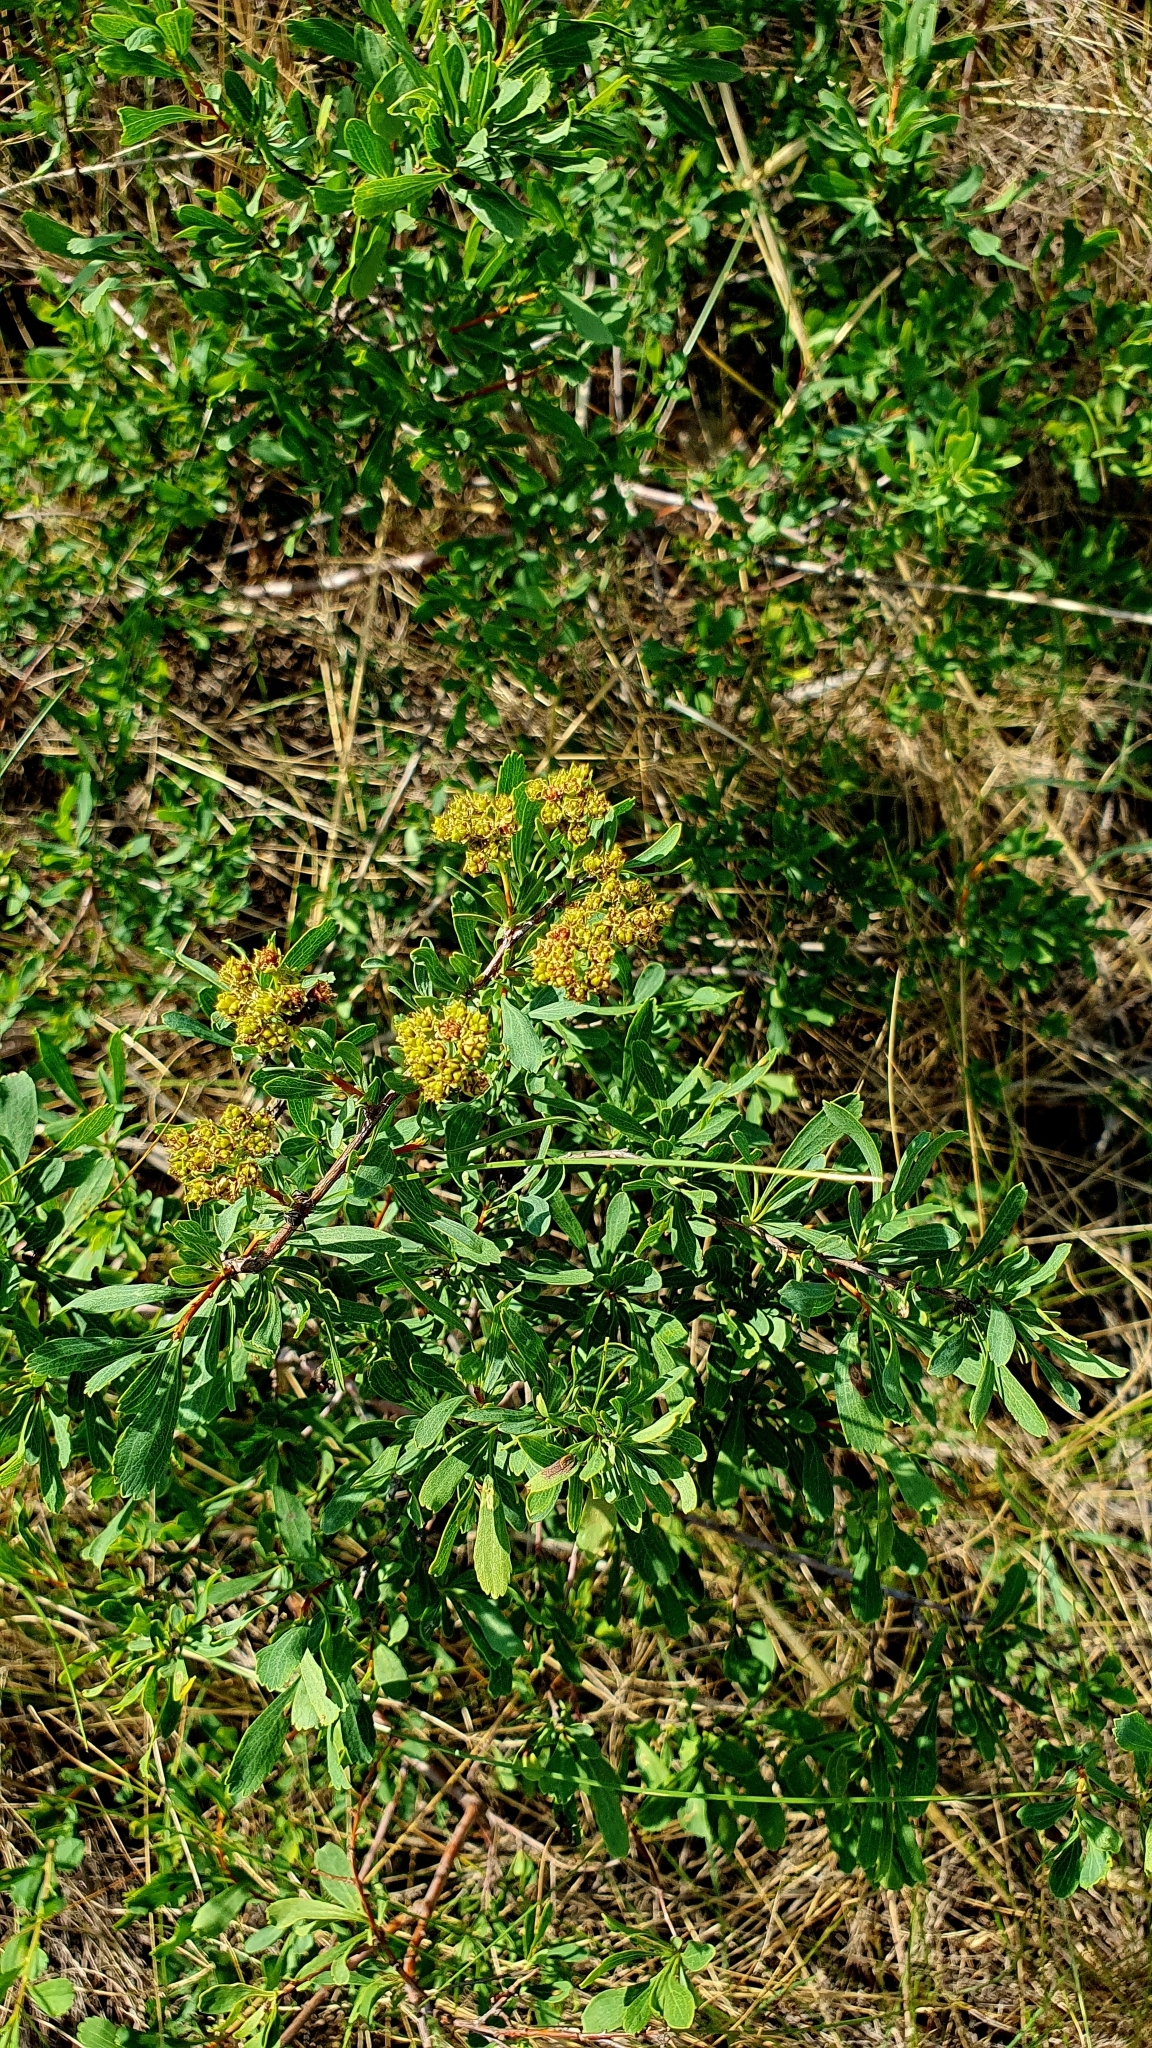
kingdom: Plantae
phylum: Tracheophyta
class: Magnoliopsida
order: Rosales
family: Rosaceae
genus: Spiraea
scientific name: Spiraea crenata
